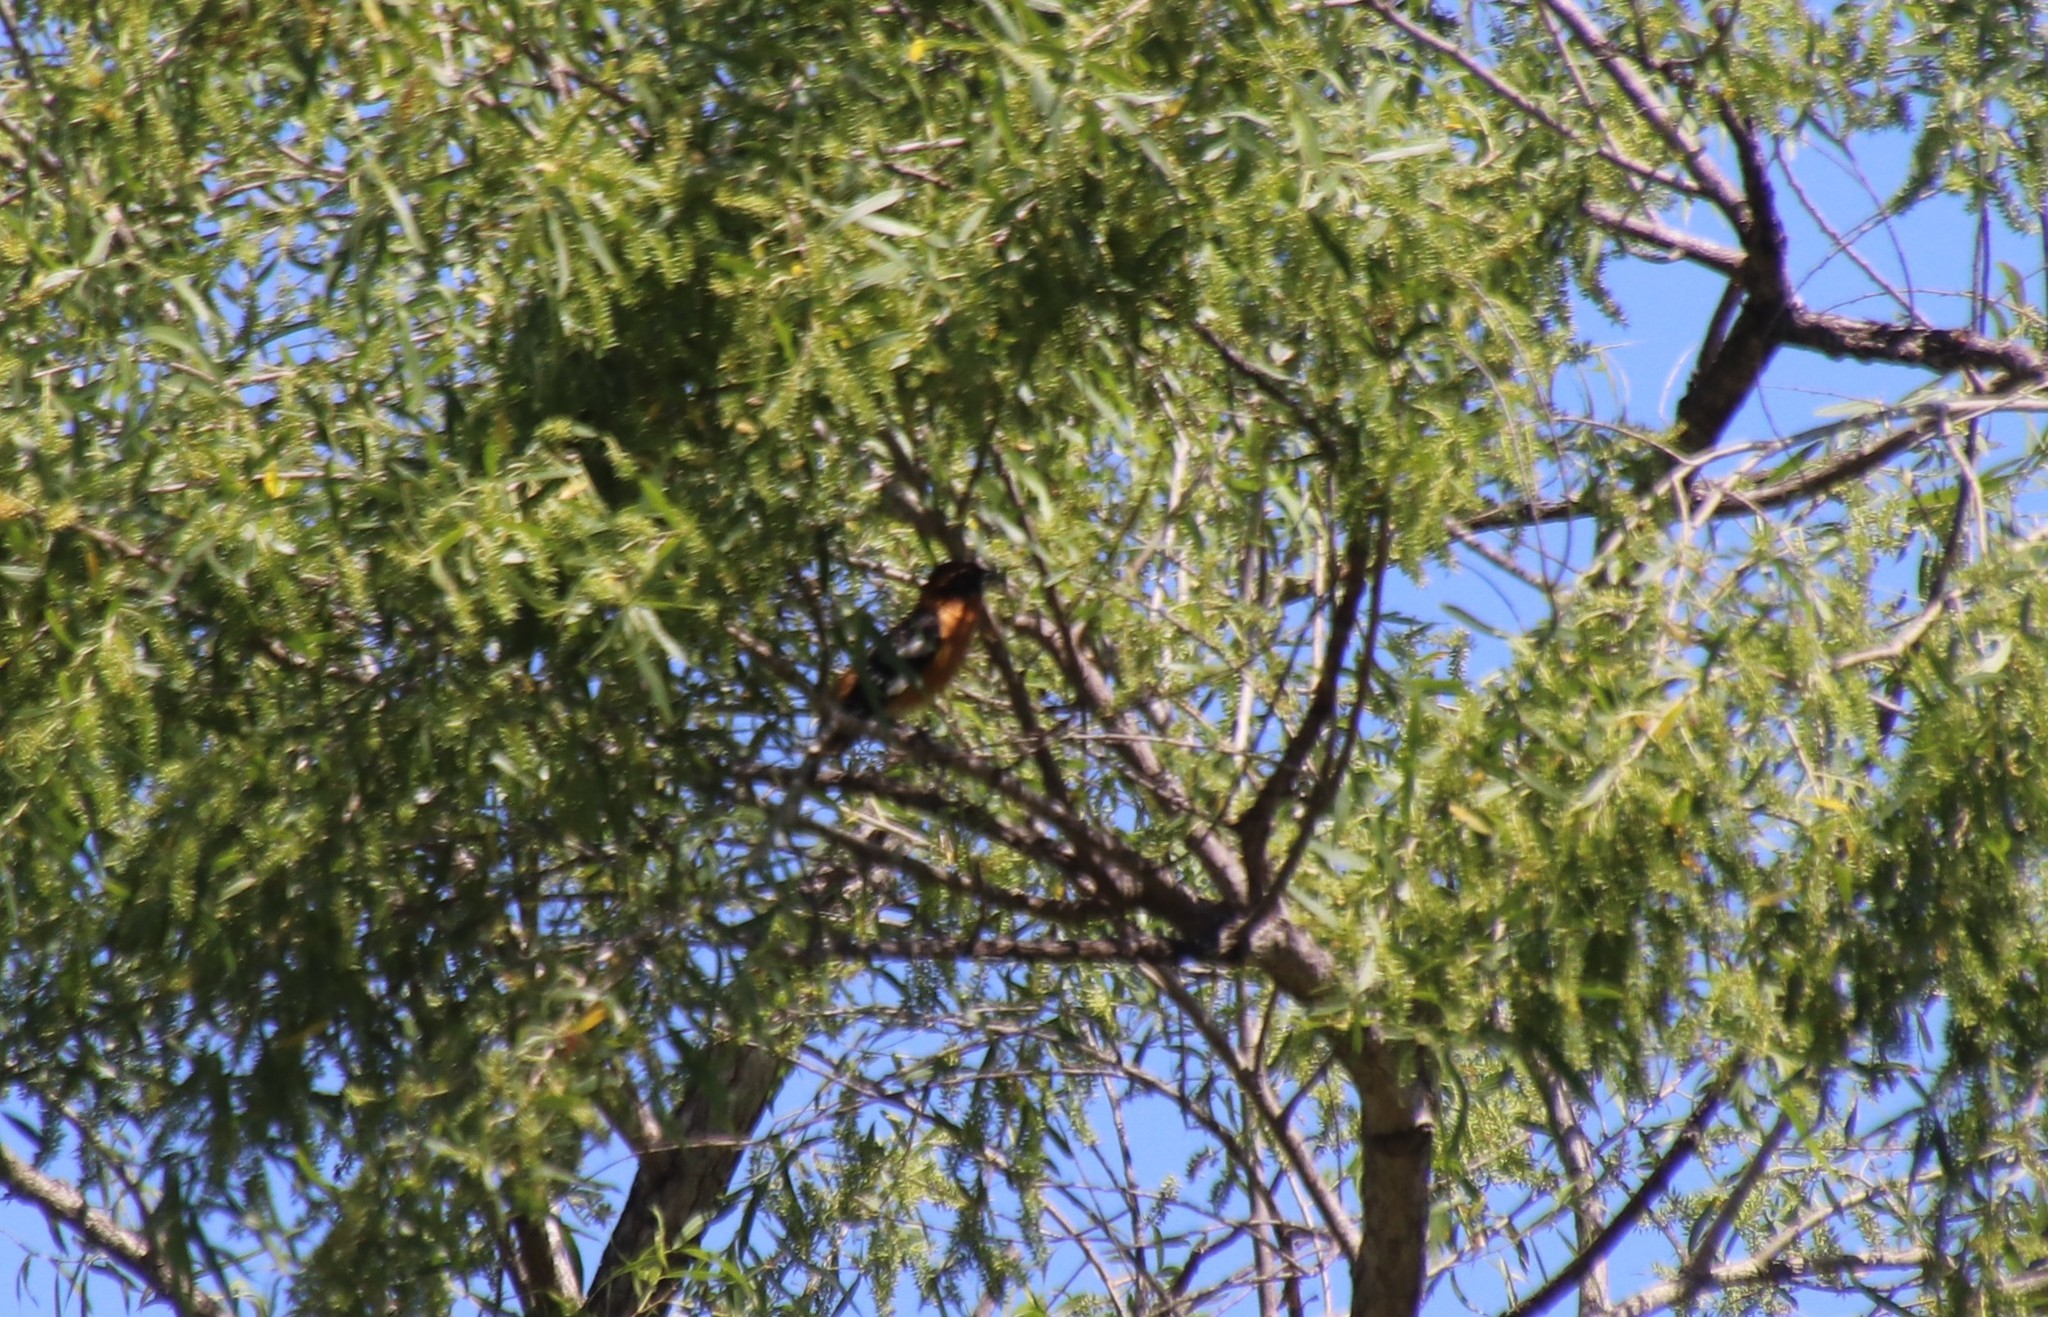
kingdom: Animalia
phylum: Chordata
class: Aves
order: Passeriformes
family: Cardinalidae
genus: Pheucticus
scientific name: Pheucticus melanocephalus
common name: Black-headed grosbeak
